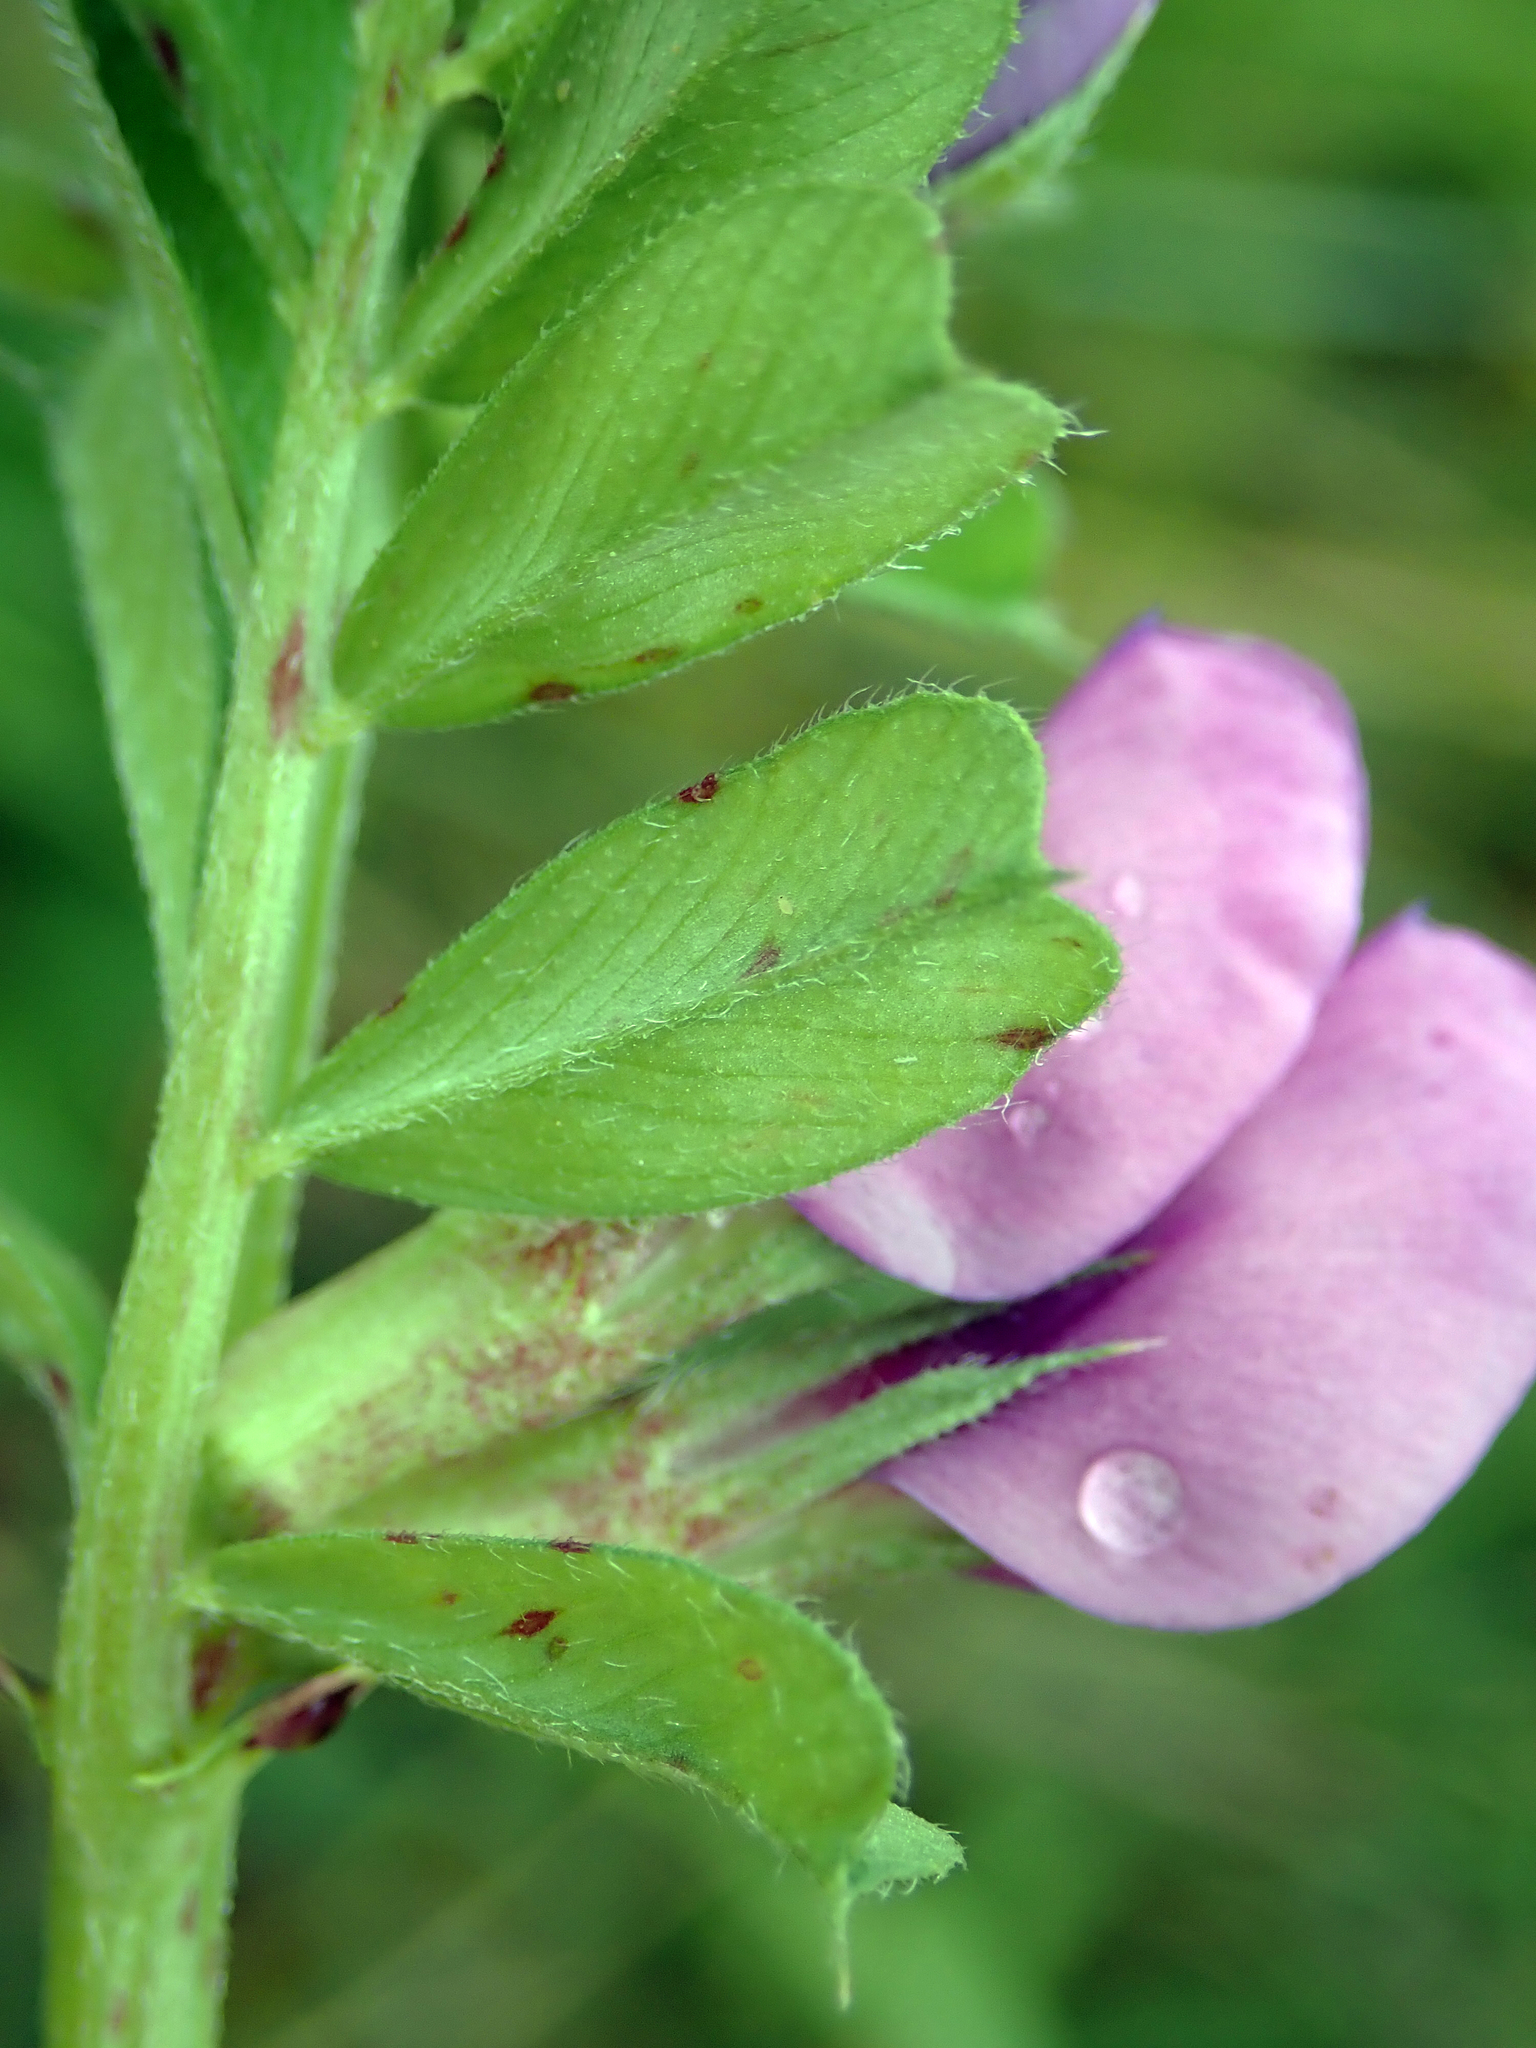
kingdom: Plantae
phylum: Tracheophyta
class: Magnoliopsida
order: Fabales
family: Fabaceae
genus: Vicia
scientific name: Vicia sativa
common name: Garden vetch
